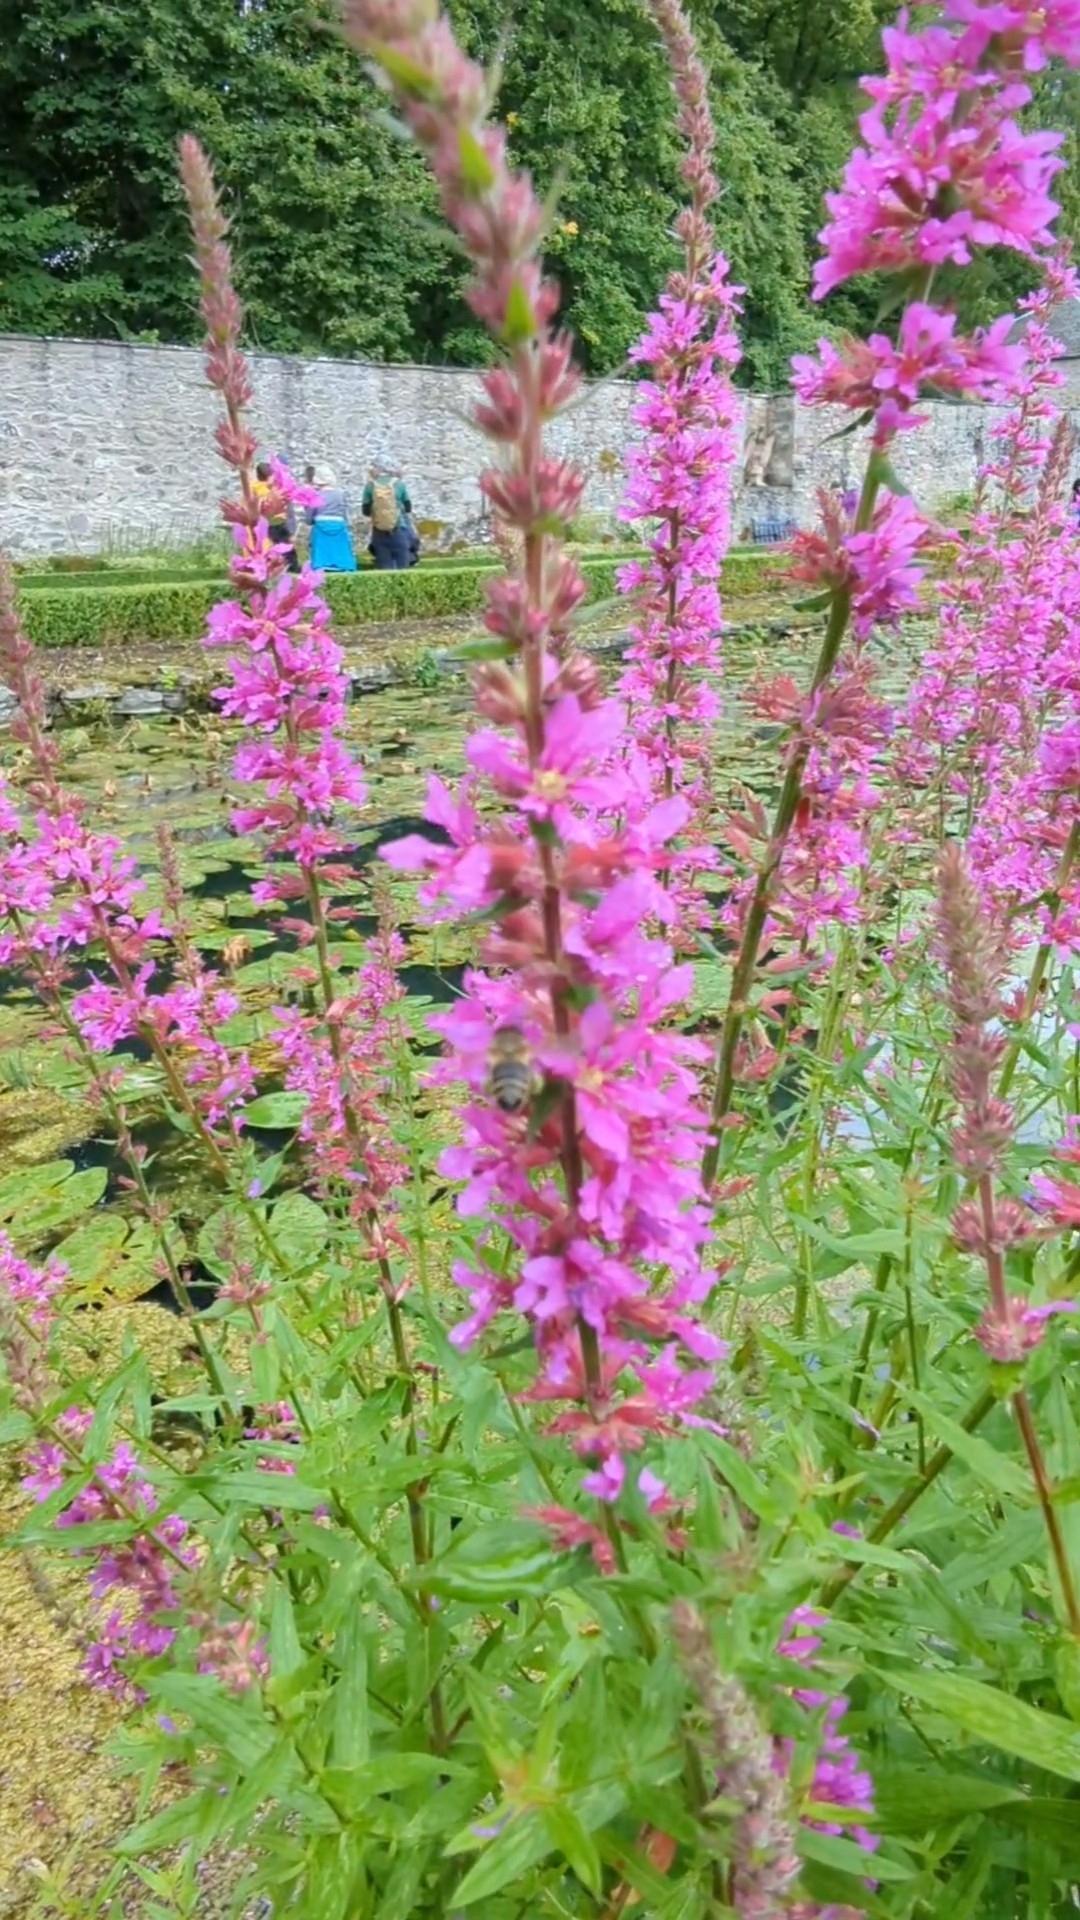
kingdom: Animalia
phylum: Arthropoda
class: Insecta
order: Hymenoptera
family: Apidae
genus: Apis
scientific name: Apis mellifera
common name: Honey bee
